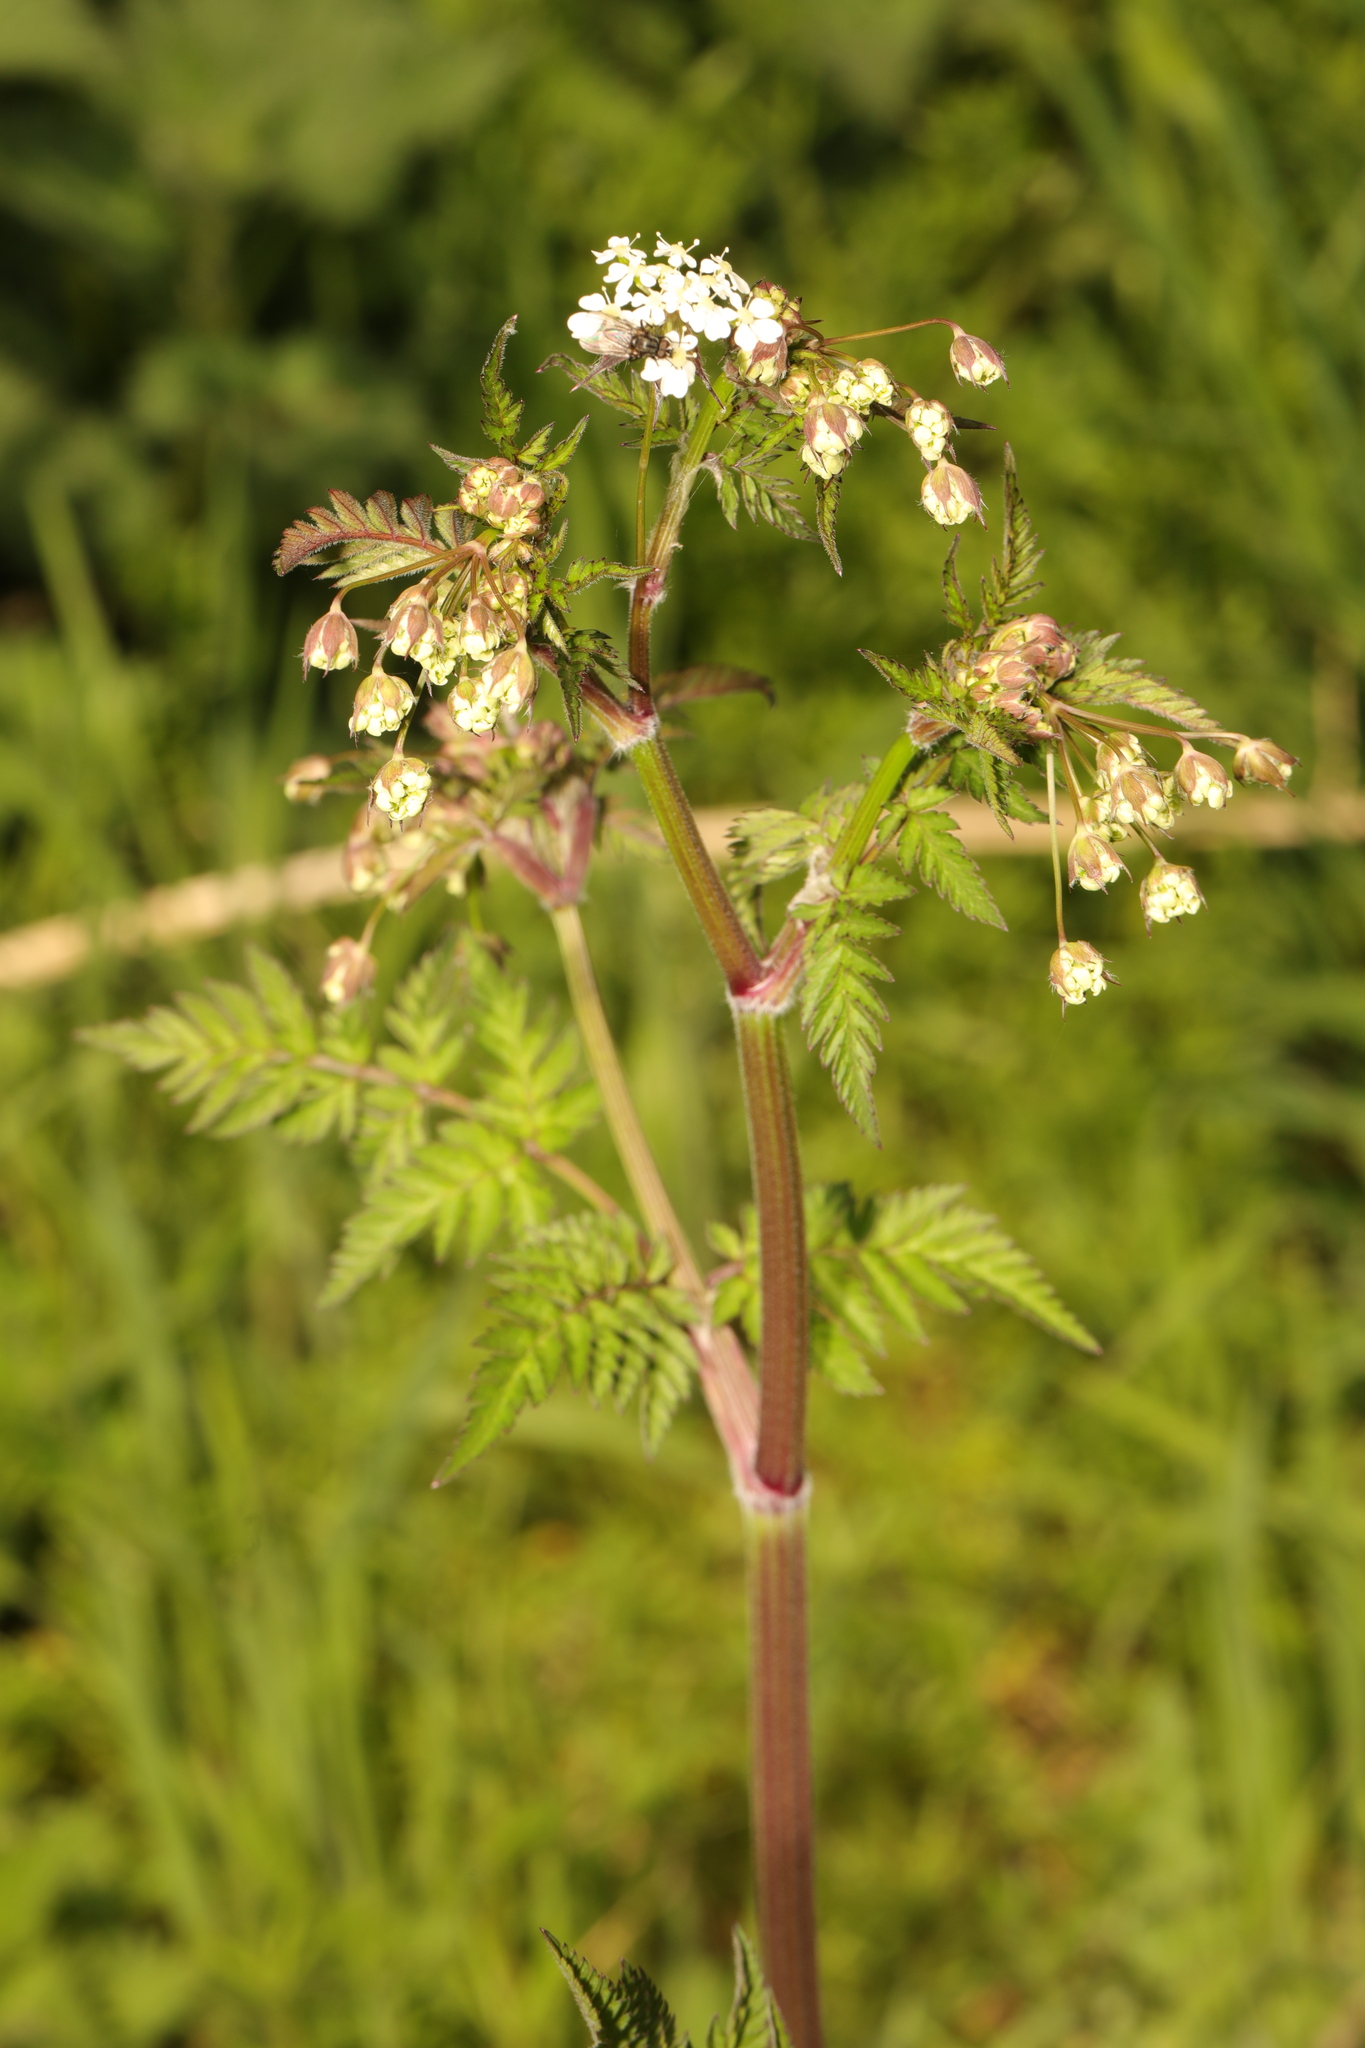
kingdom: Plantae
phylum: Tracheophyta
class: Magnoliopsida
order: Apiales
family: Apiaceae
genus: Anthriscus
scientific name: Anthriscus sylvestris
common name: Cow parsley
